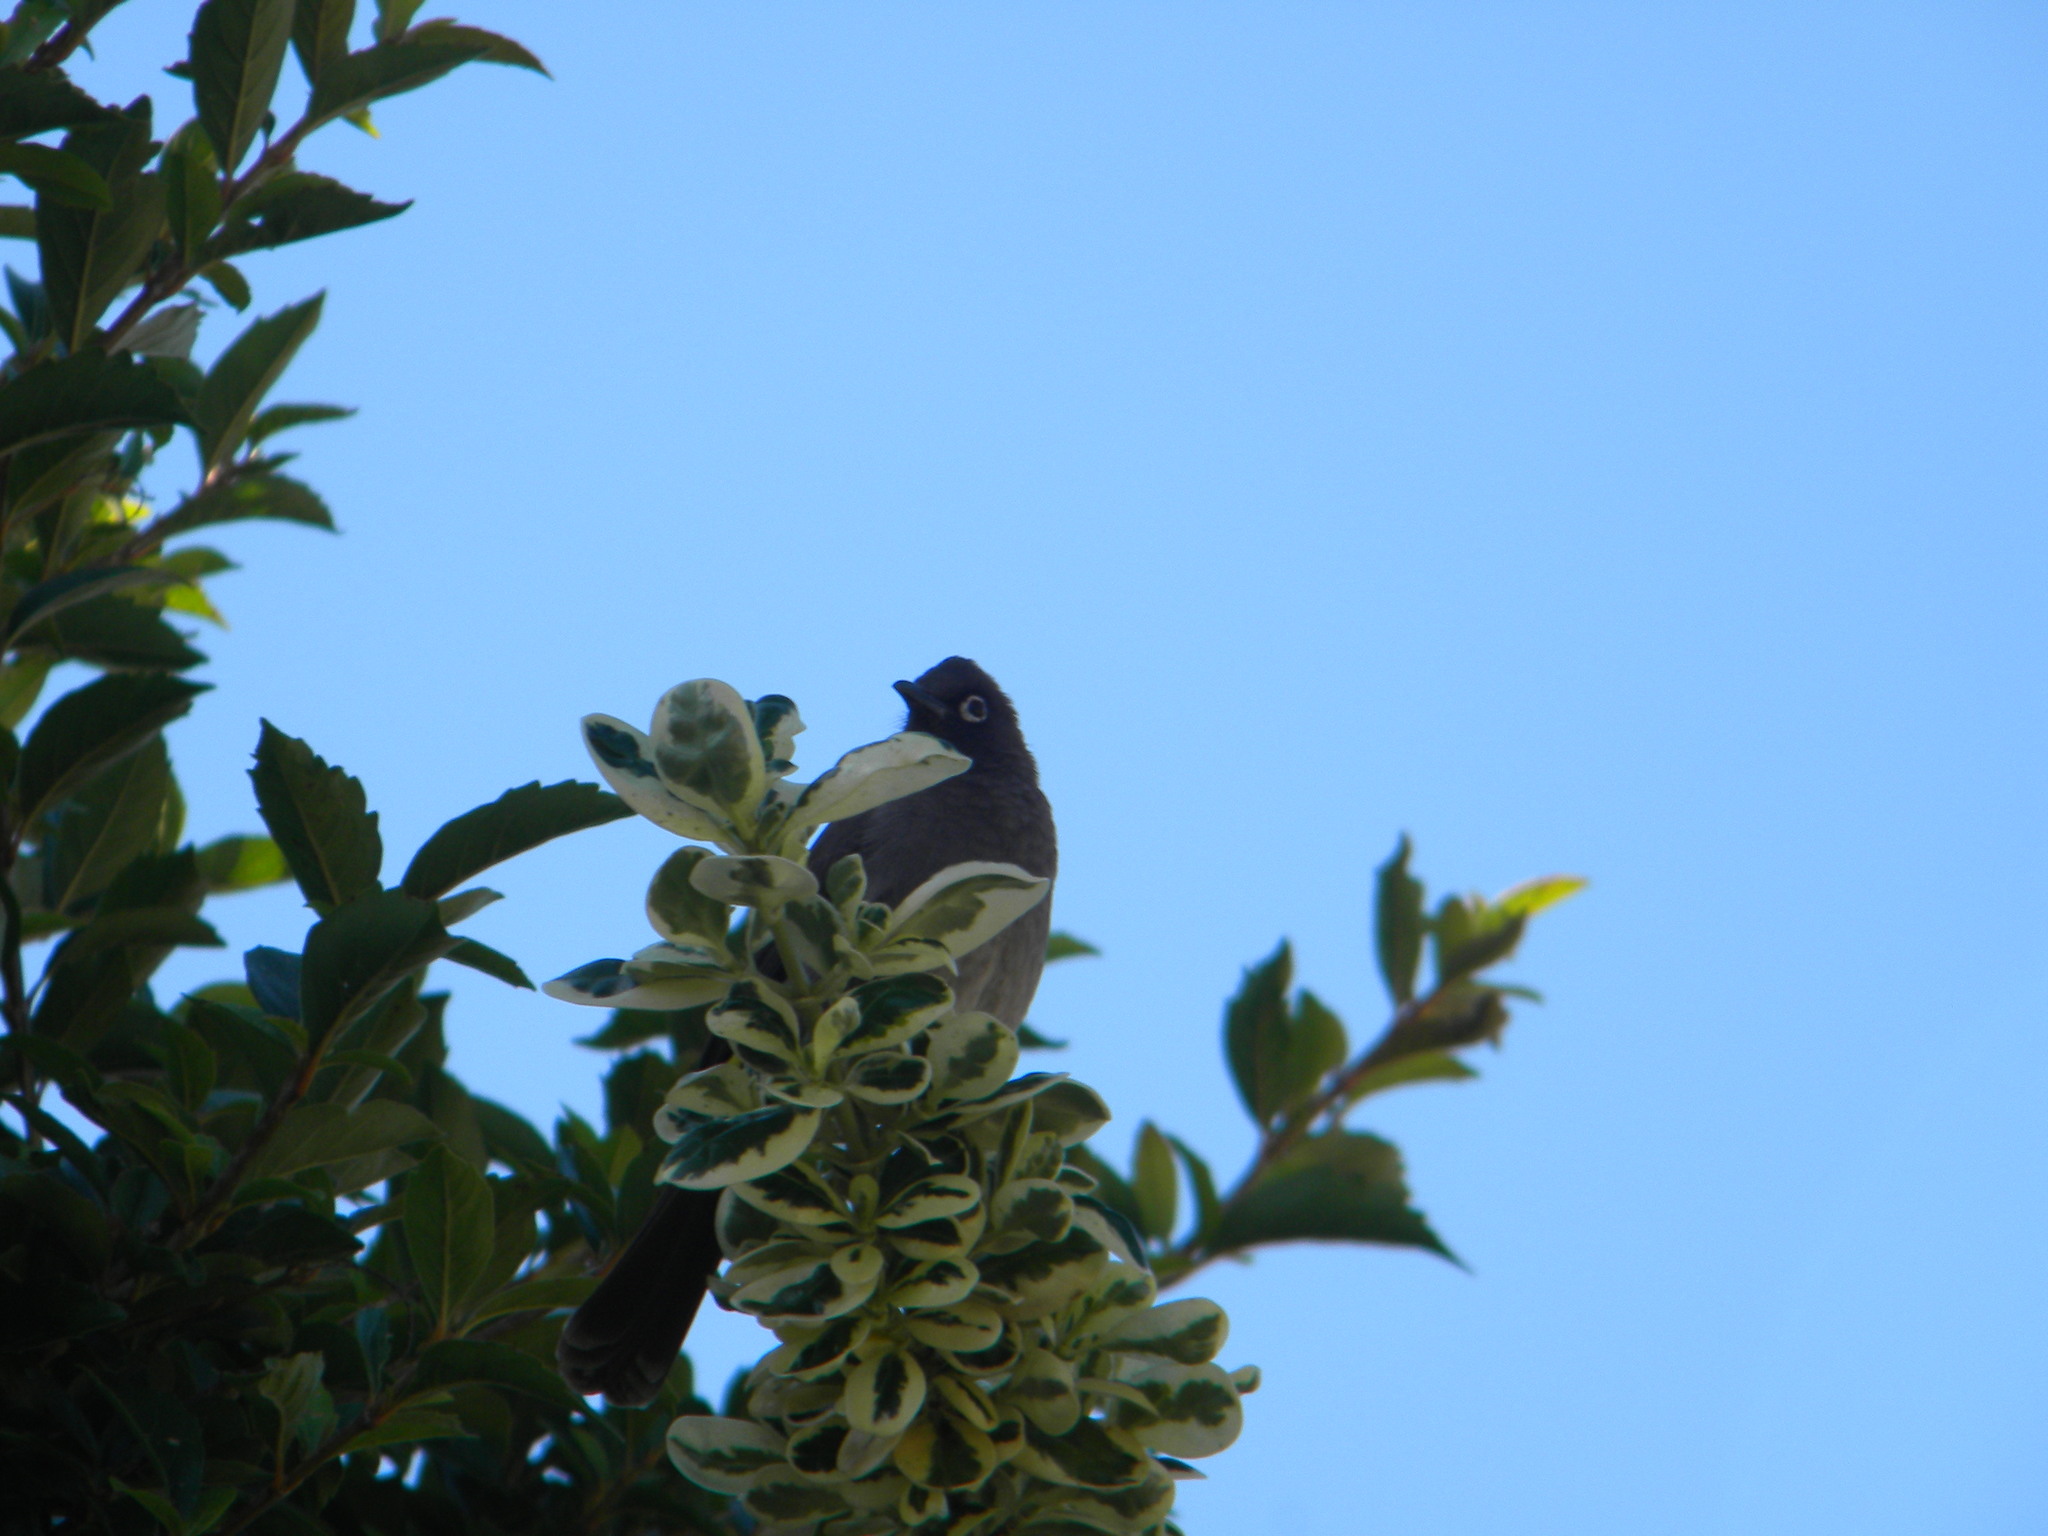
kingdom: Animalia
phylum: Chordata
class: Aves
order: Passeriformes
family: Pycnonotidae
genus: Pycnonotus
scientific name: Pycnonotus capensis
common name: Cape bulbul
